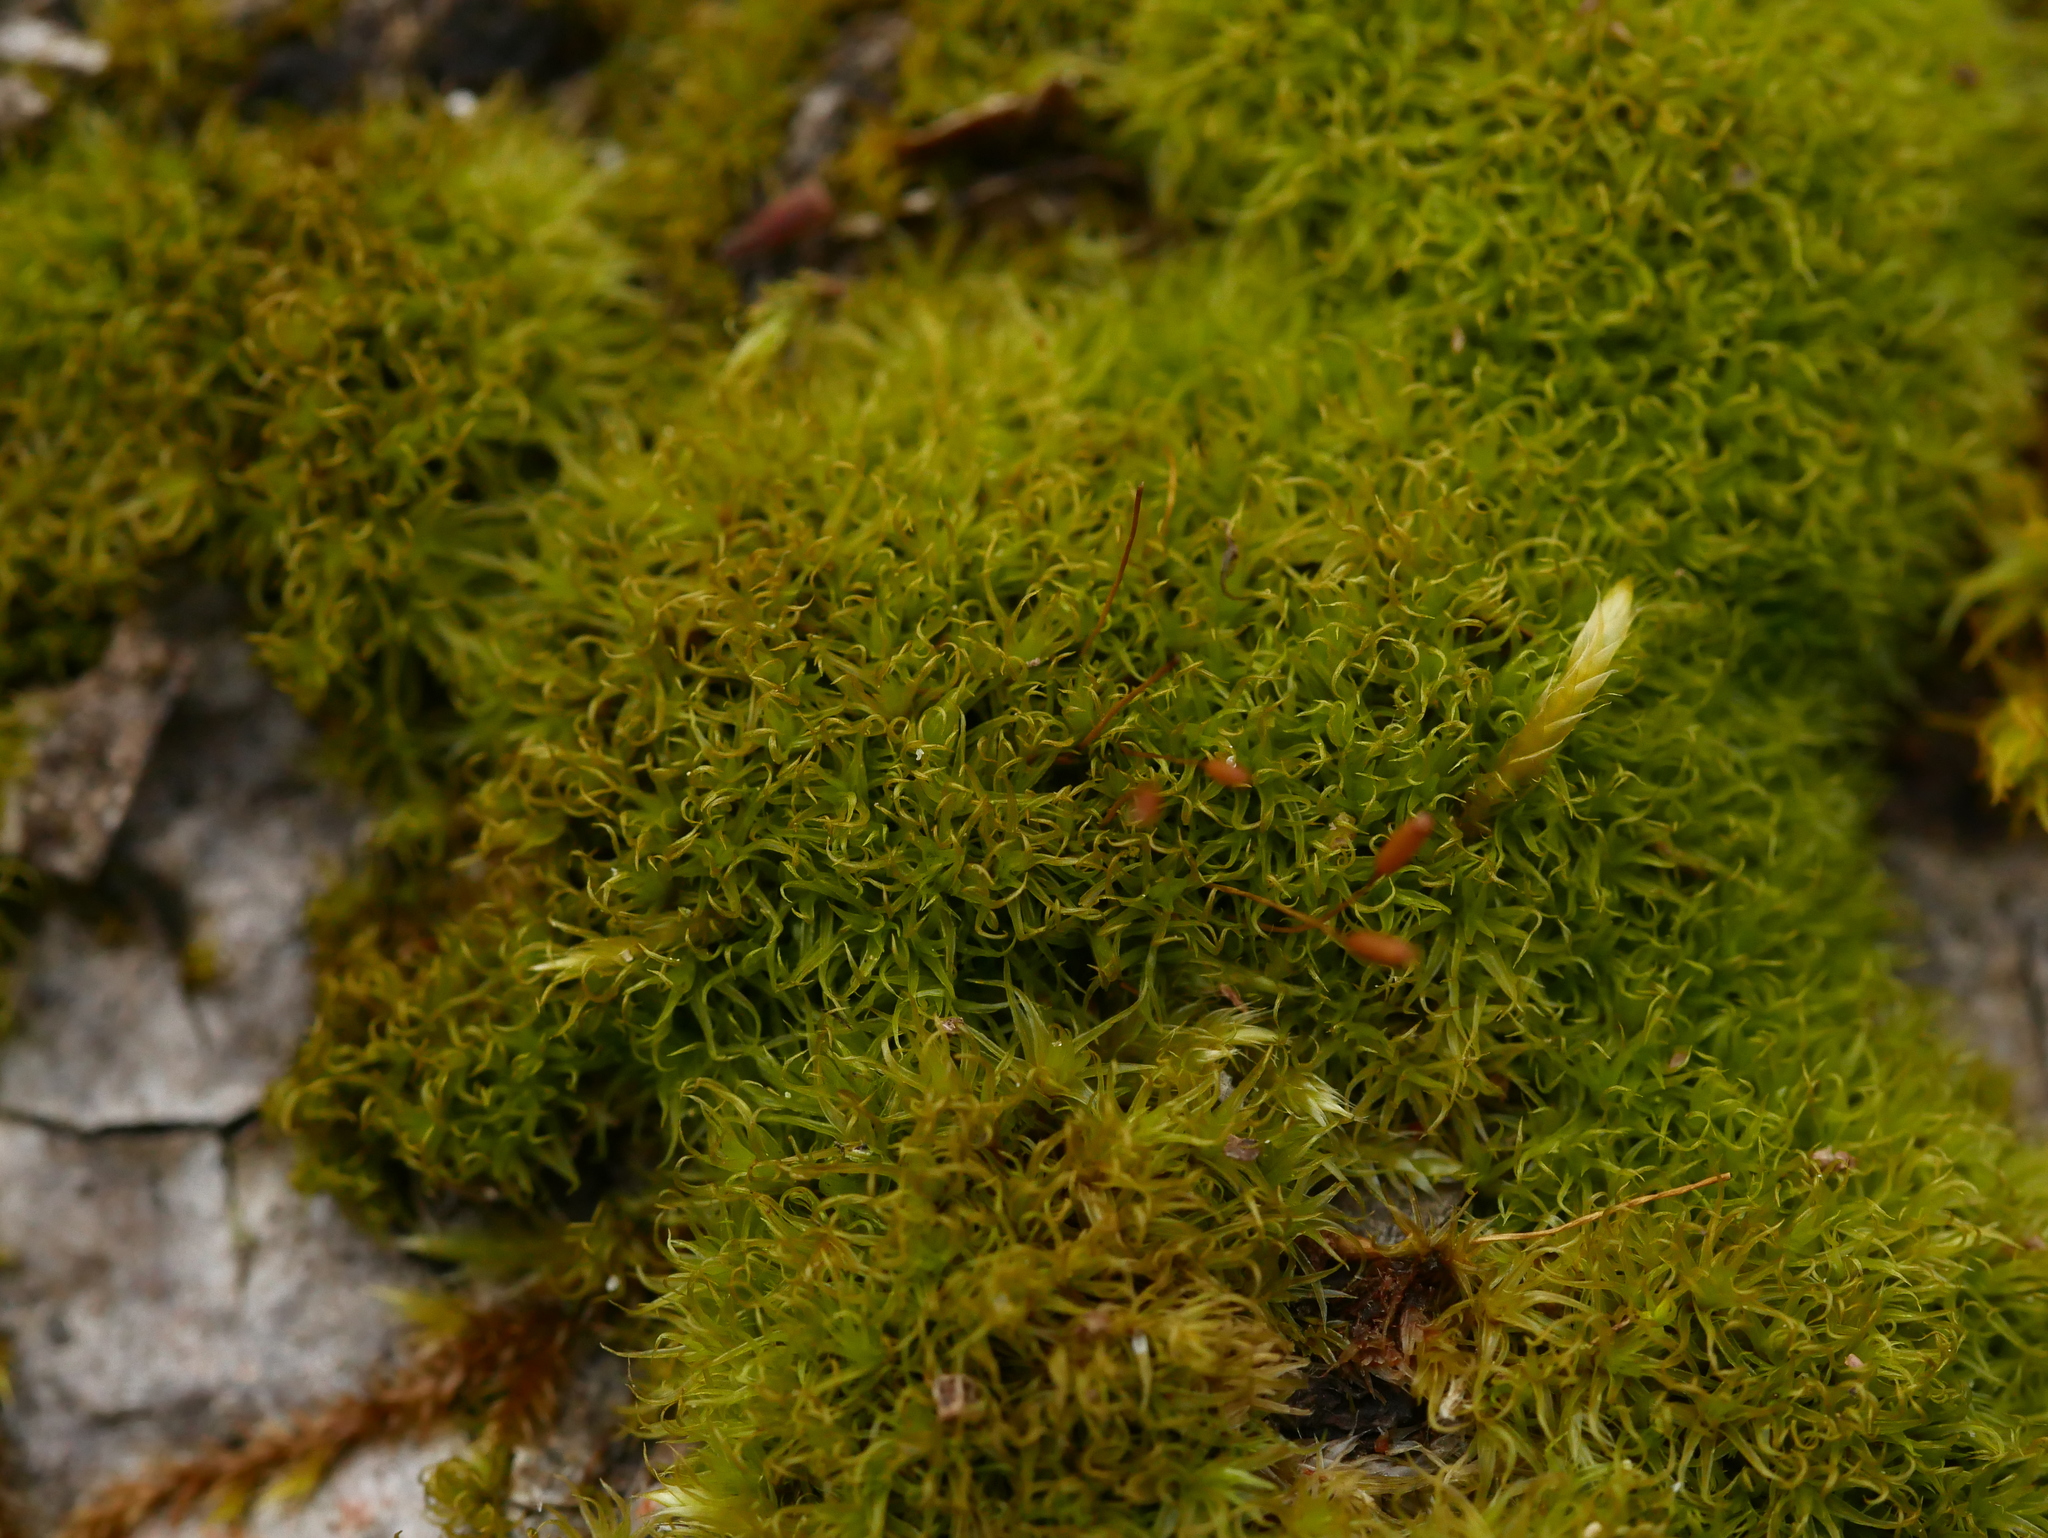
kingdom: Plantae
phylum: Bryophyta
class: Bryopsida
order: Dicranales
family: Rhabdoweisiaceae
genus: Dicranoweisia
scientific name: Dicranoweisia cirrata
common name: Common pincushion
